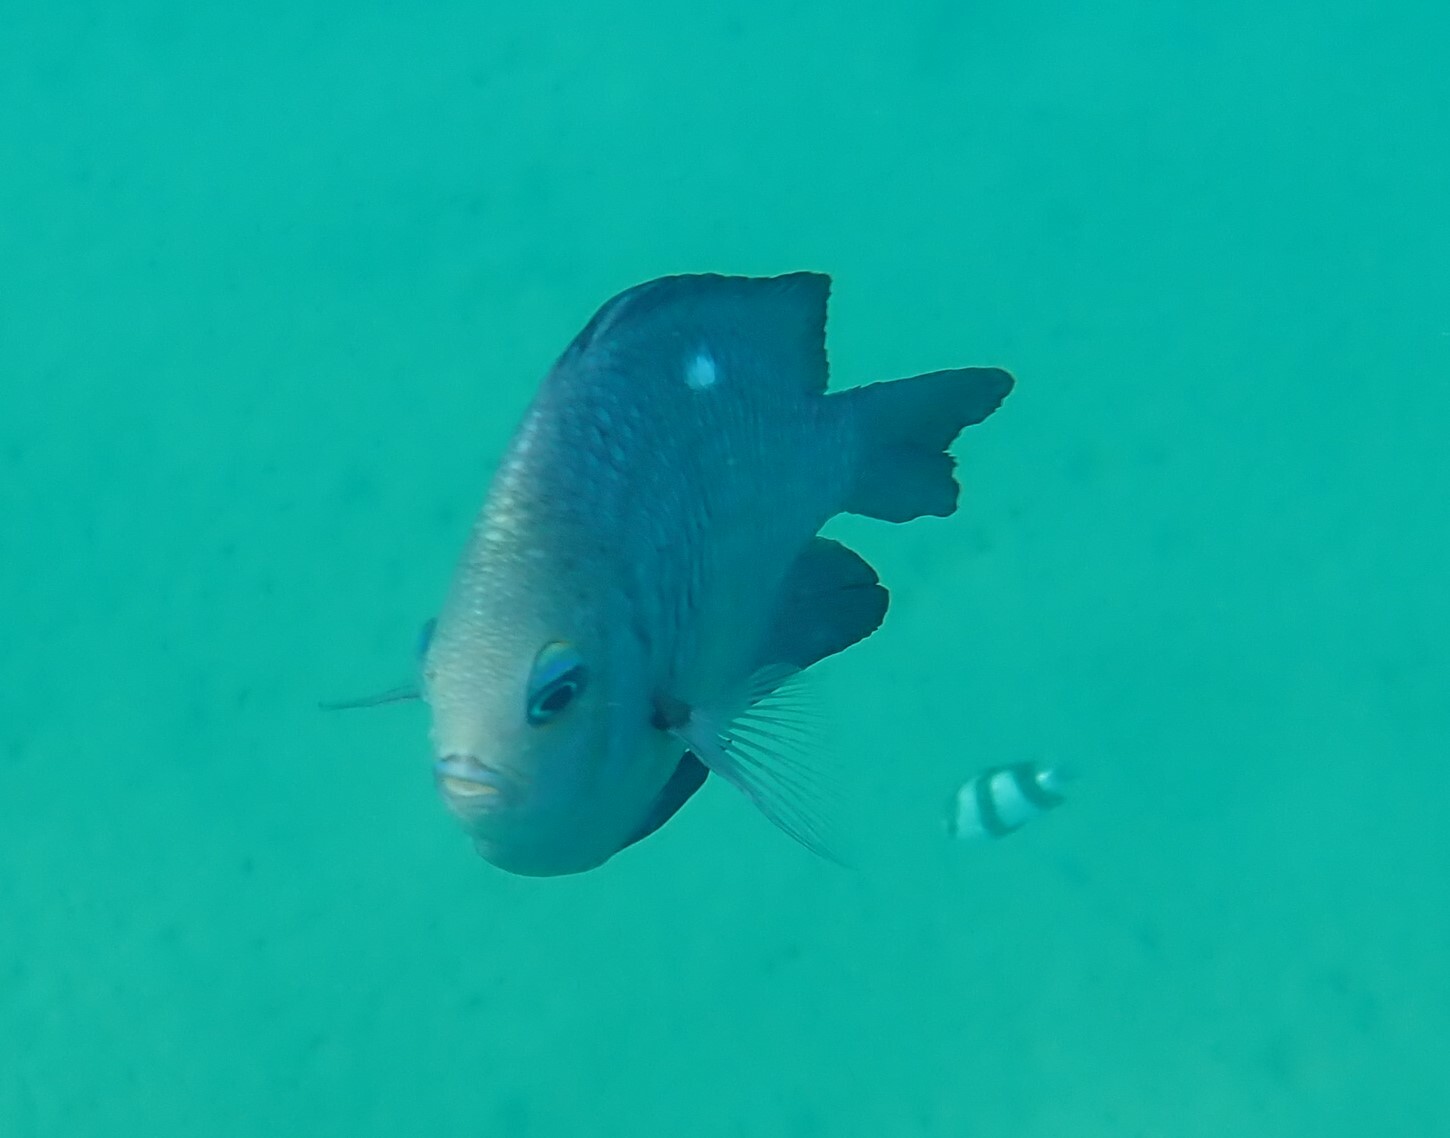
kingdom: Animalia
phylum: Chordata
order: Perciformes
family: Pomacentridae
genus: Dascyllus
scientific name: Dascyllus trimaculatus
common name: Threespot dascyllus
